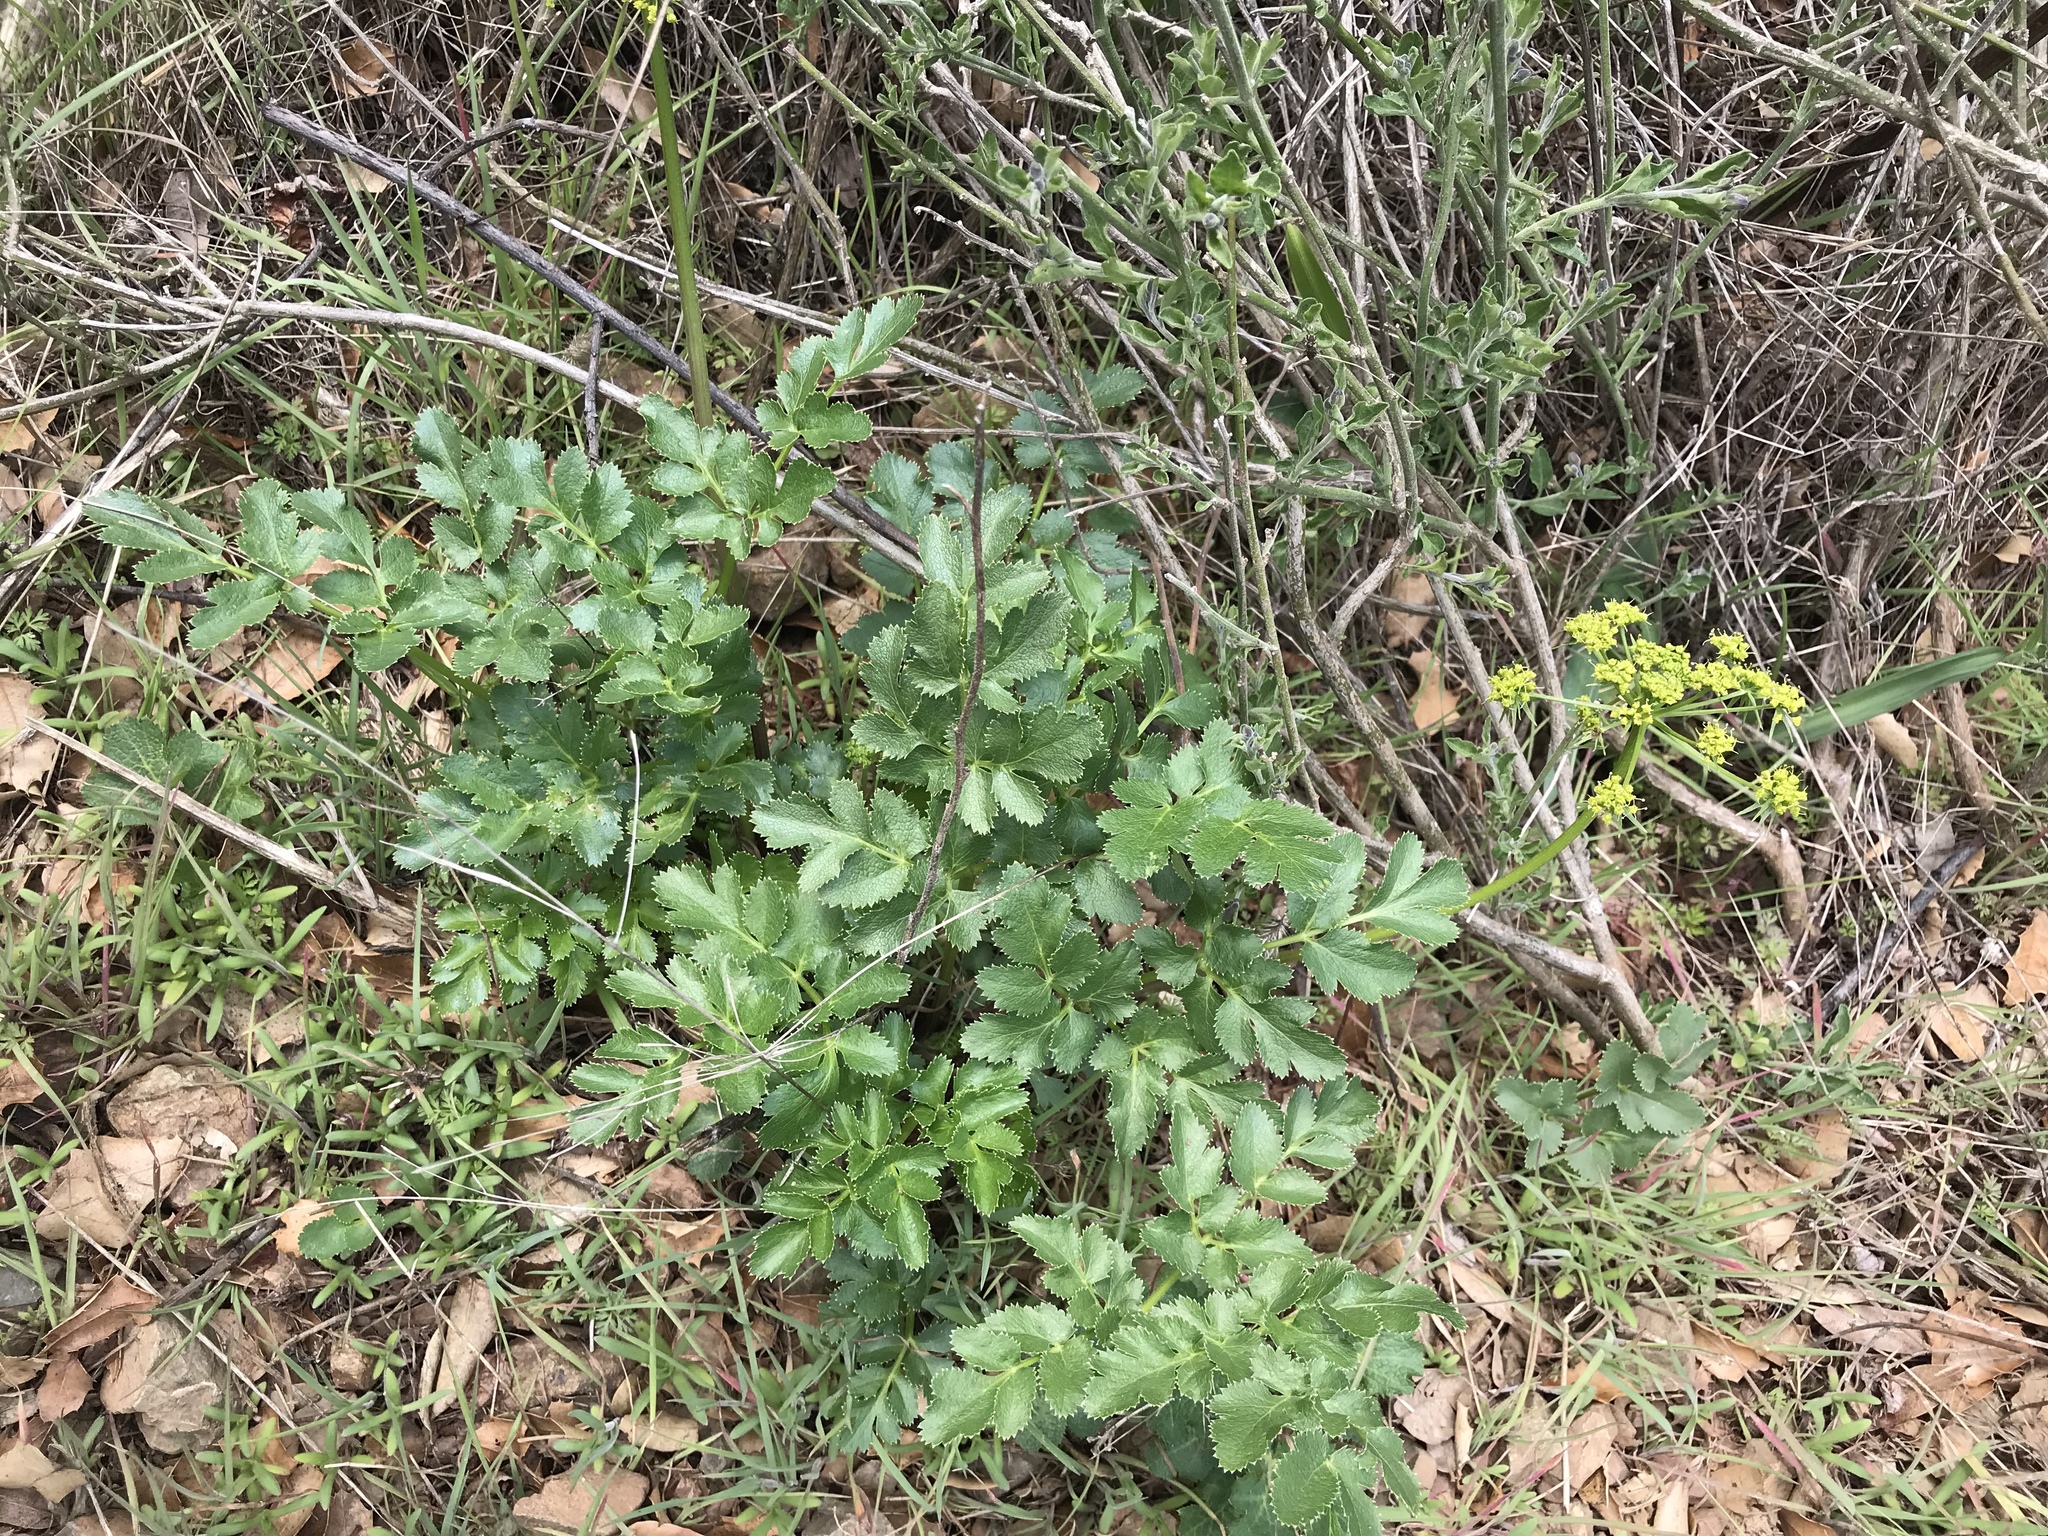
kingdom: Plantae
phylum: Tracheophyta
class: Magnoliopsida
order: Apiales
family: Apiaceae
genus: Tauschia
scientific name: Tauschia hartwegii
